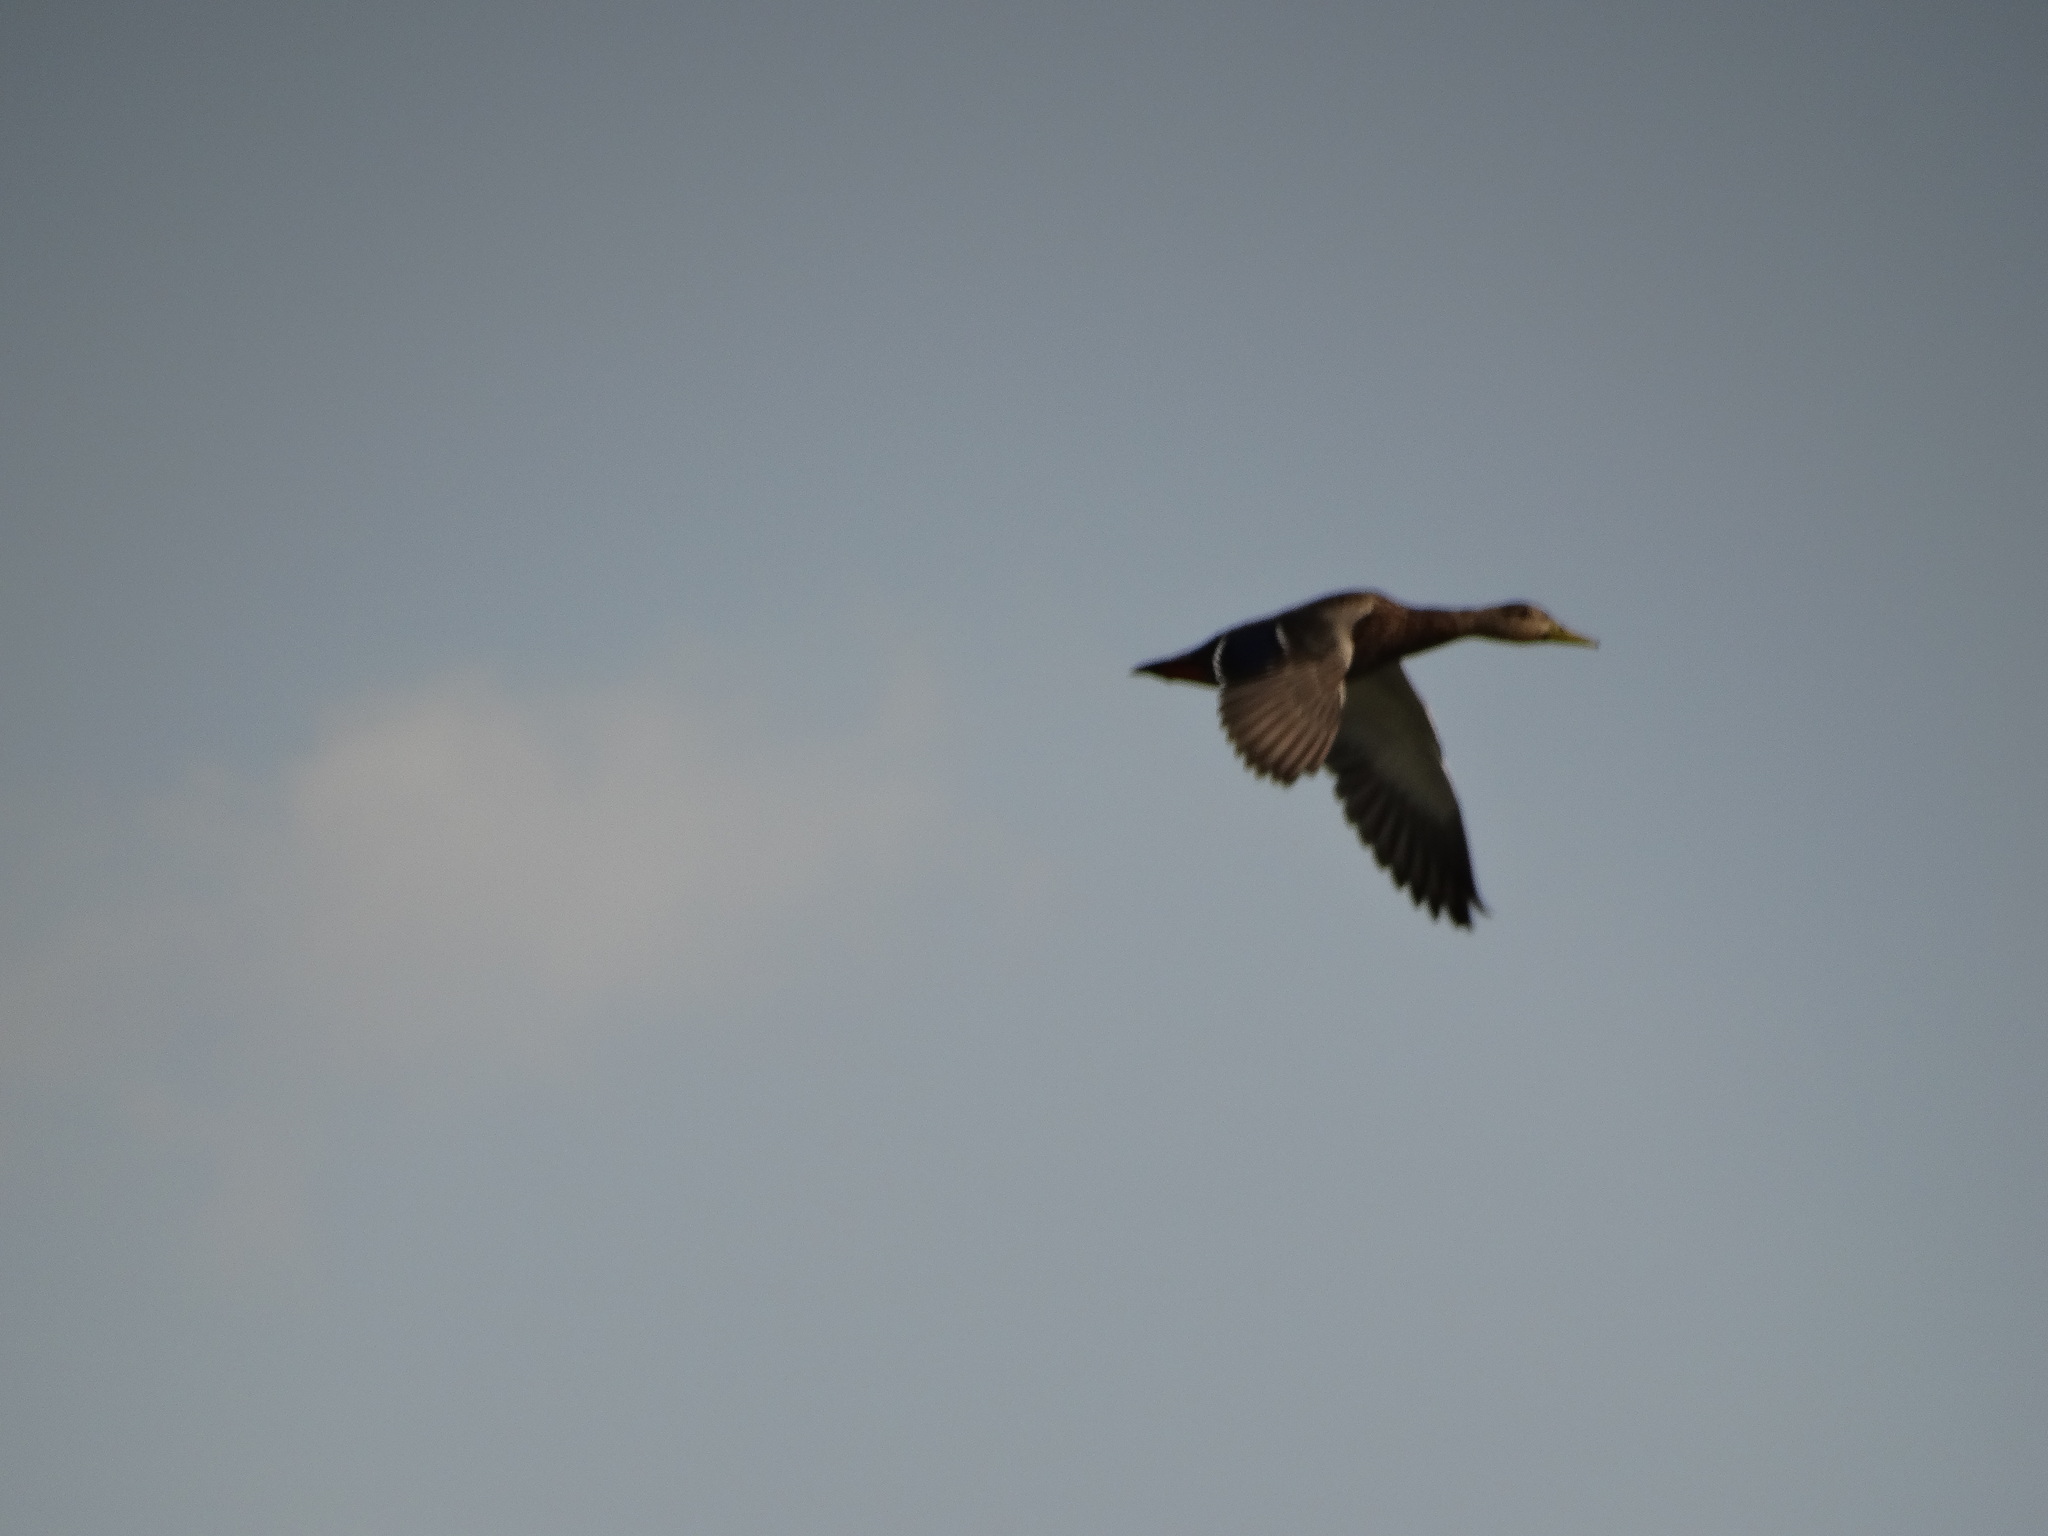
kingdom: Animalia
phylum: Chordata
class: Aves
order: Anseriformes
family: Anatidae
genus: Anas
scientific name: Anas diazi
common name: Mexican duck
